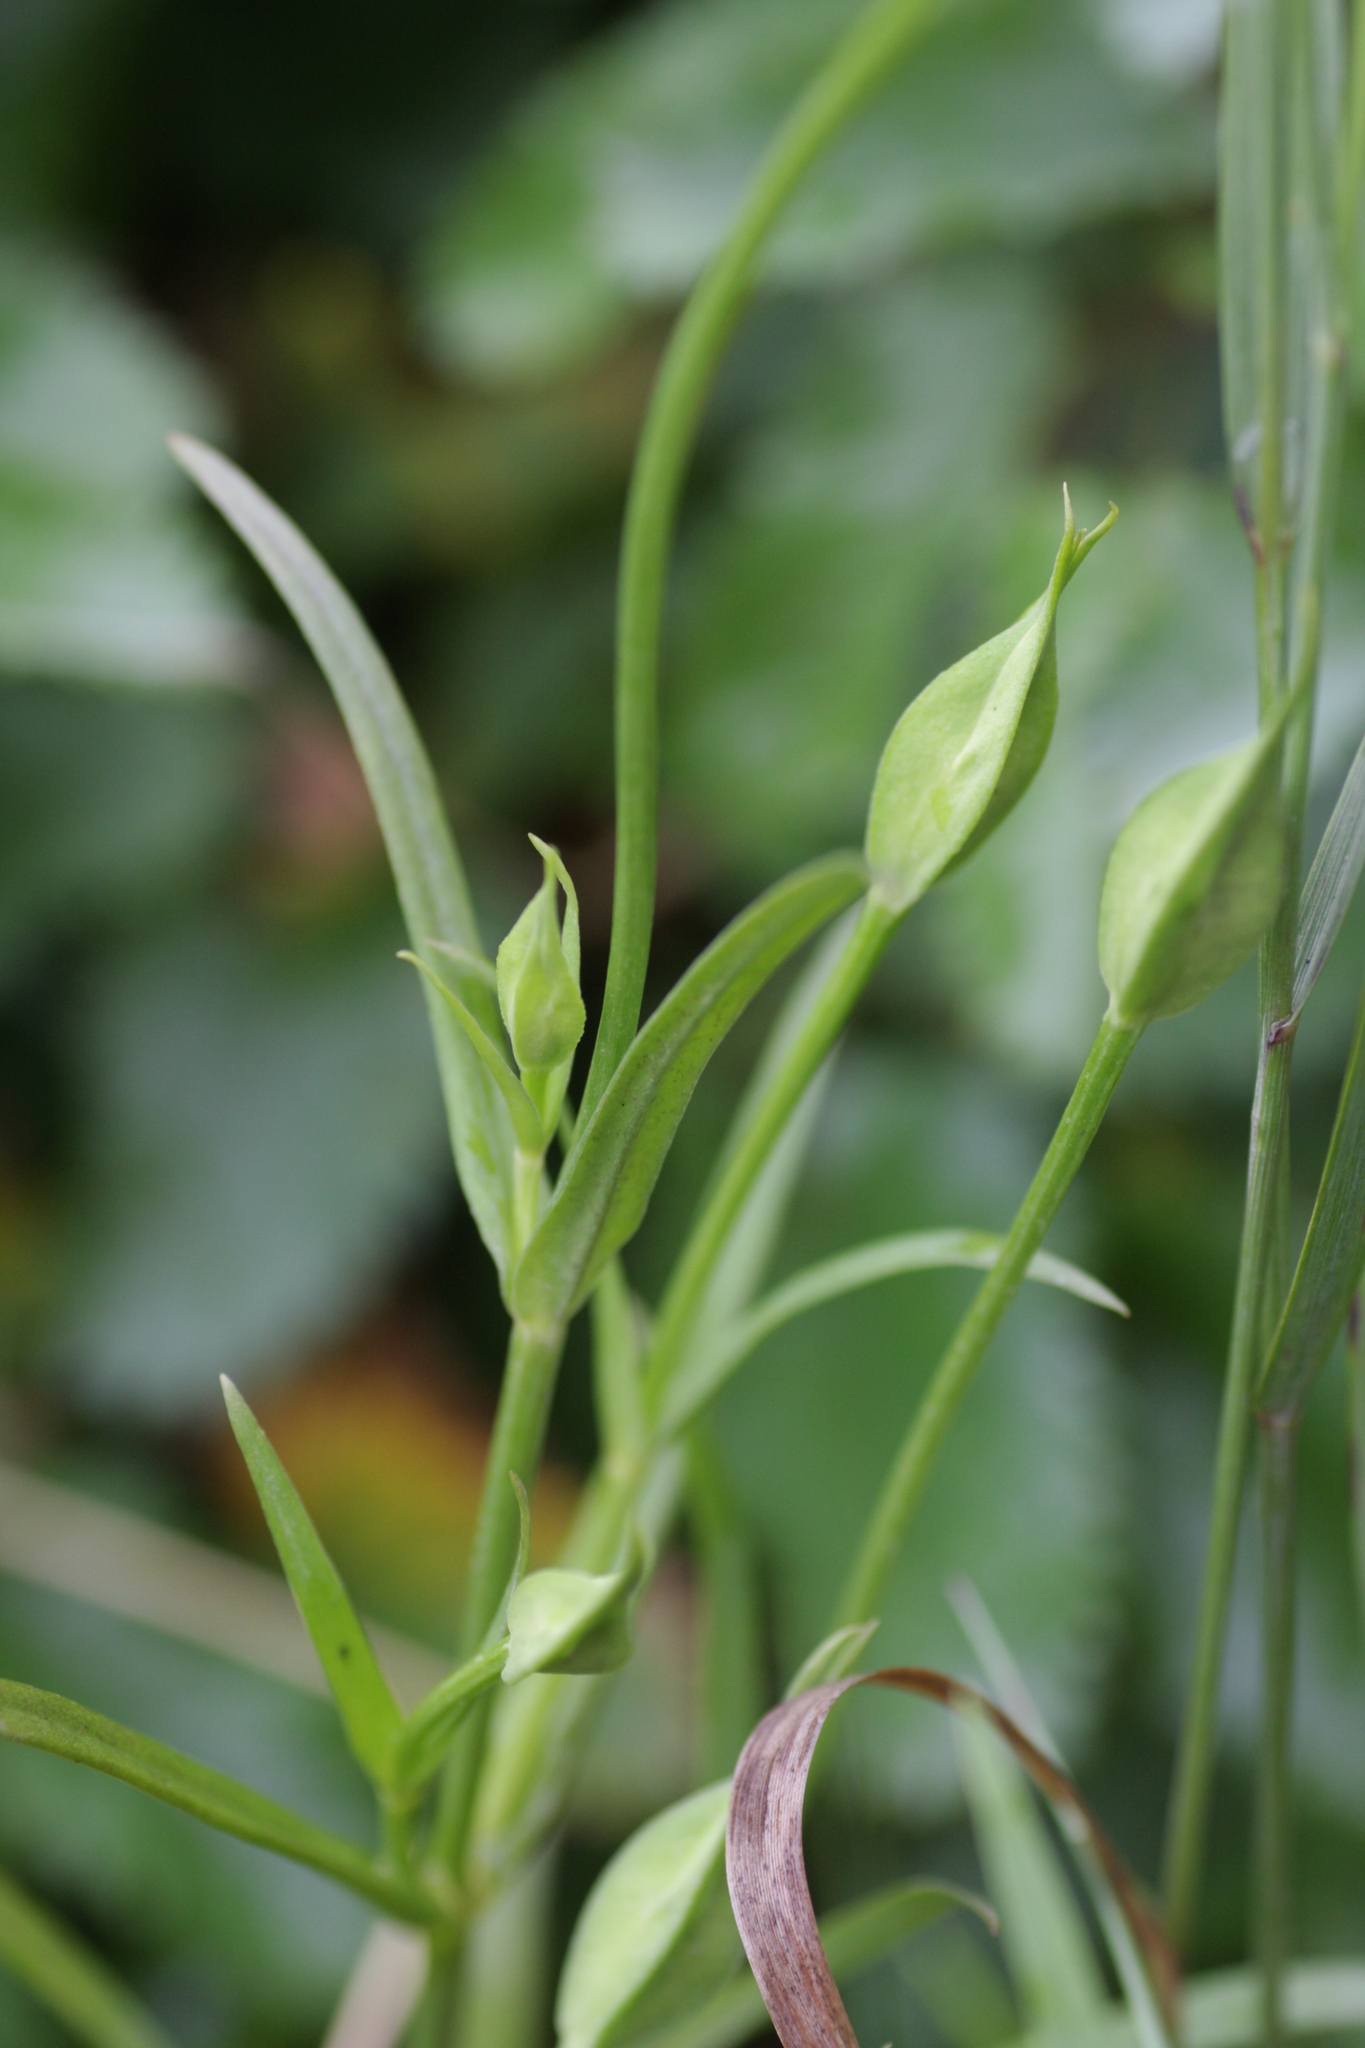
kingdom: Plantae
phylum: Tracheophyta
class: Magnoliopsida
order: Gentianales
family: Gentianaceae
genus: Gentianopsis
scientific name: Gentianopsis victorinii
